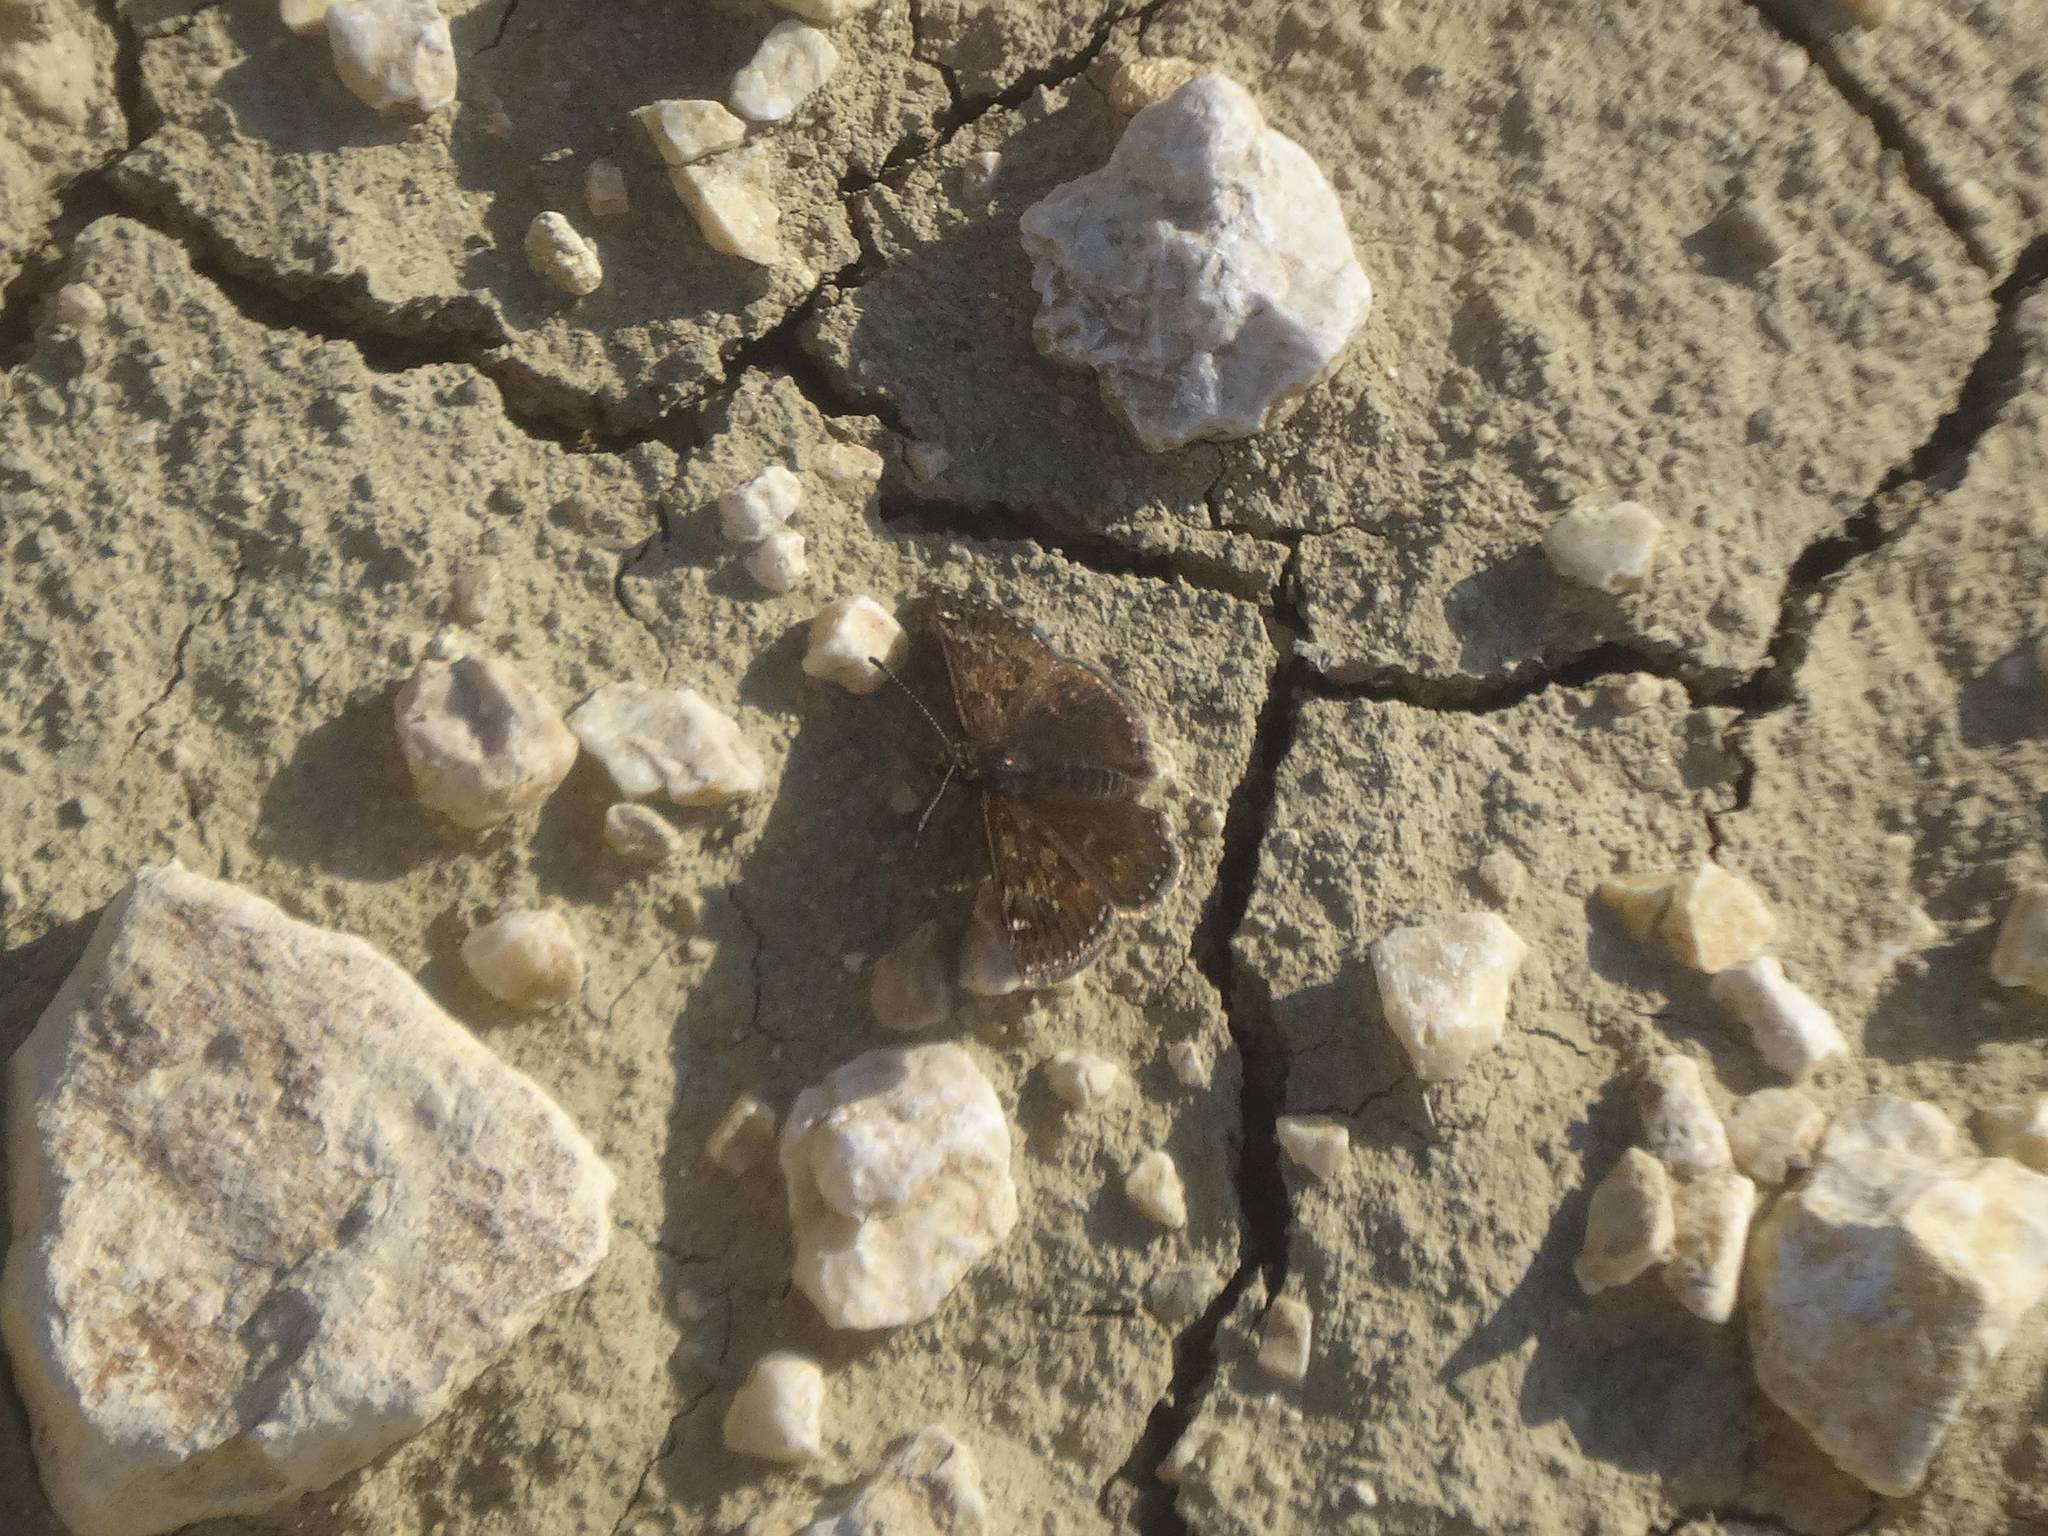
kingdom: Animalia
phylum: Arthropoda
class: Insecta
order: Lepidoptera
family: Hesperiidae
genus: Erynnis
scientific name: Erynnis tages
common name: Dingy skipper
